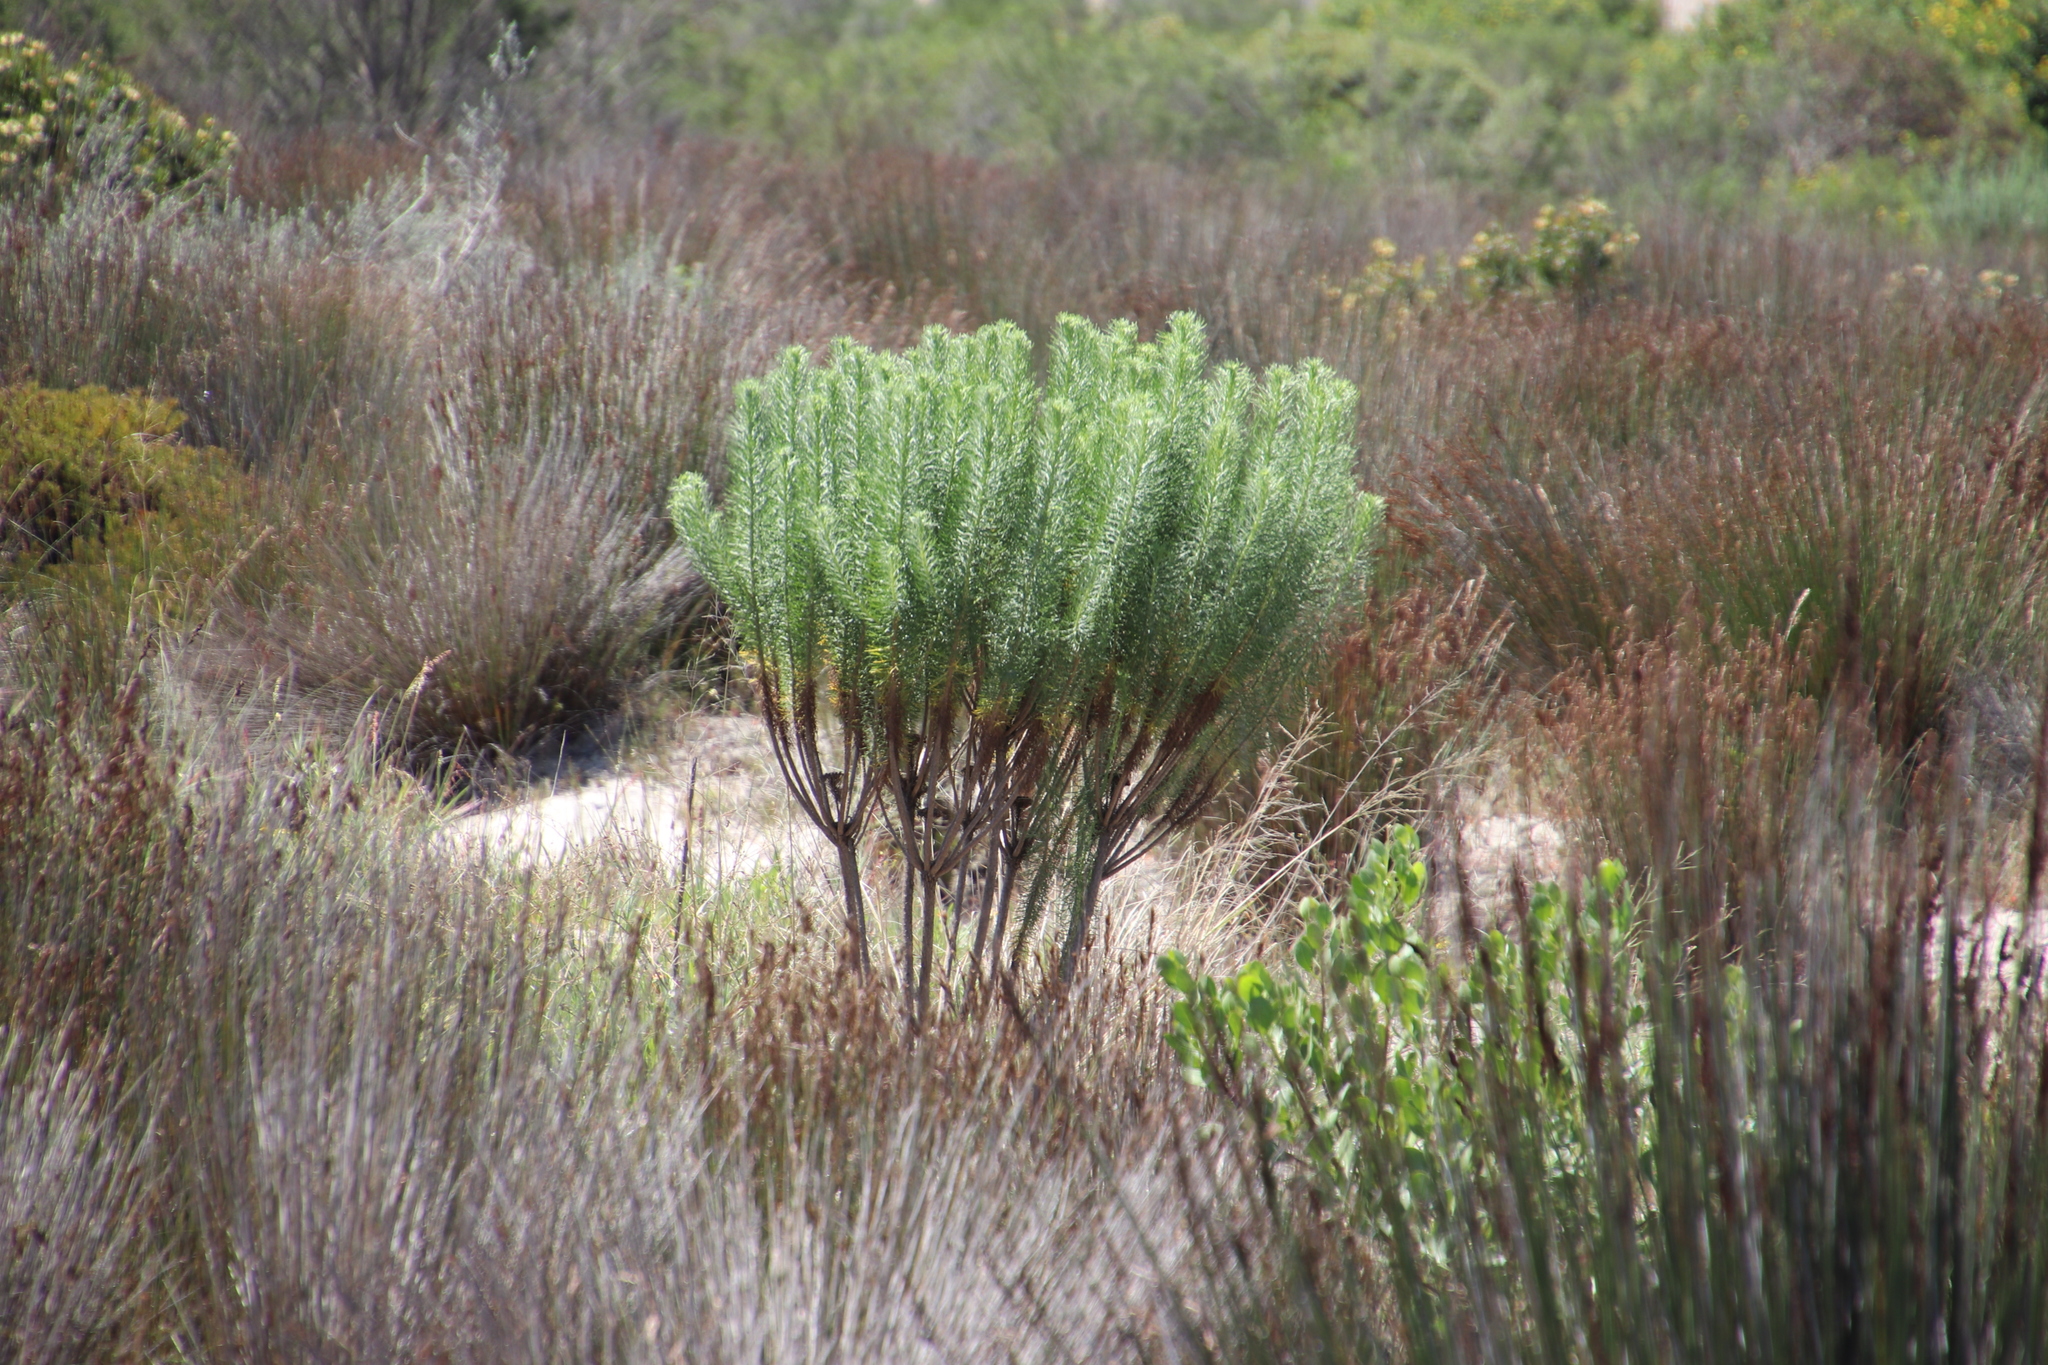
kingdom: Plantae
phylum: Tracheophyta
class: Magnoliopsida
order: Asterales
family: Asteraceae
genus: Athanasia
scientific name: Athanasia crithmifolia
